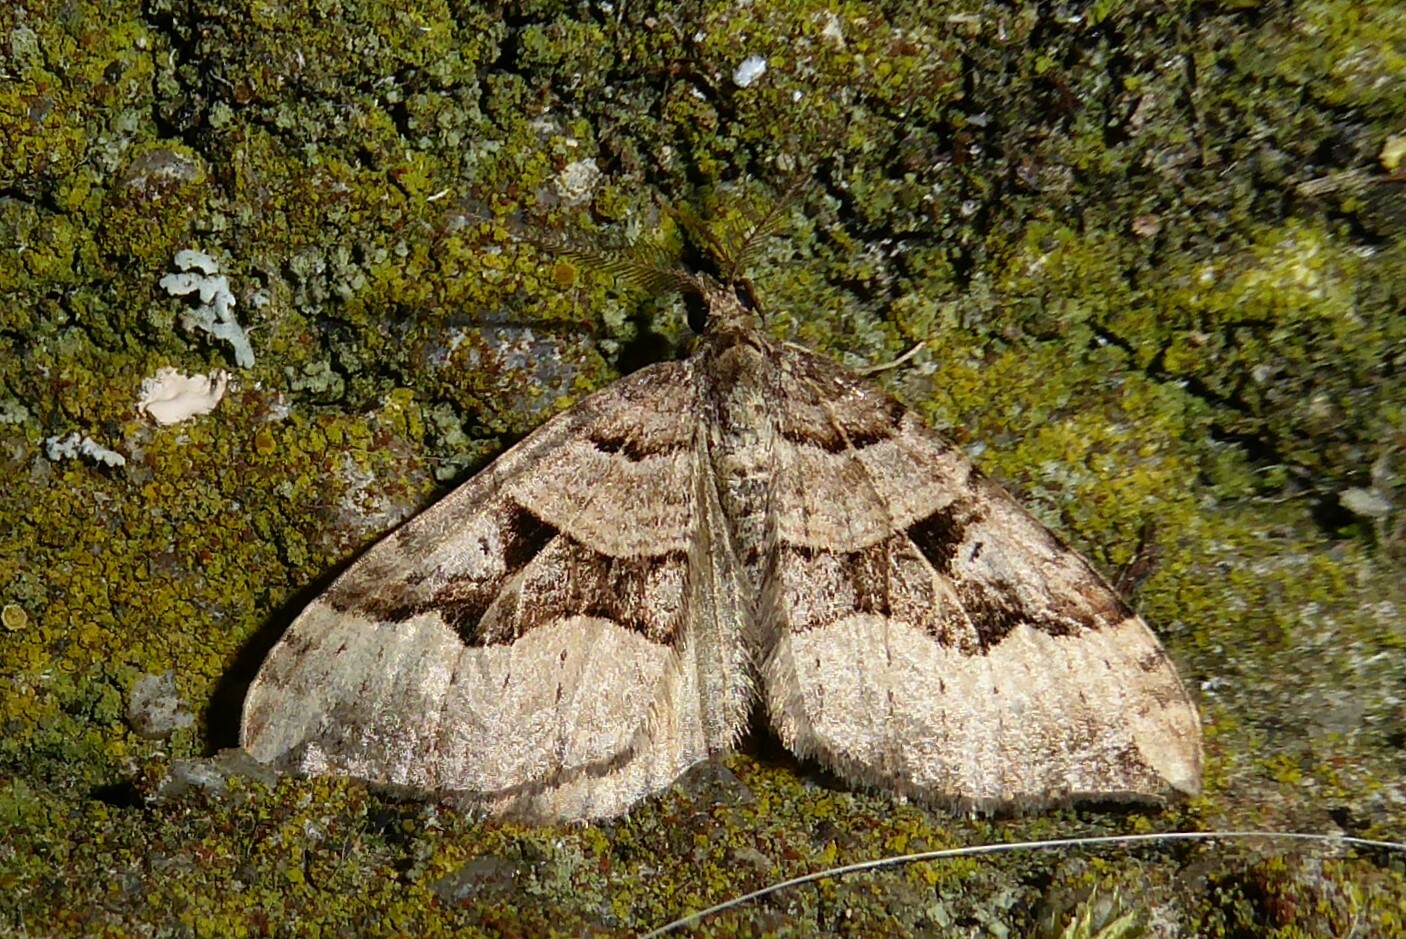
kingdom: Animalia
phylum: Arthropoda
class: Insecta
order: Lepidoptera
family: Geometridae
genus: Xanthorhoe
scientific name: Xanthorhoe semifissata
